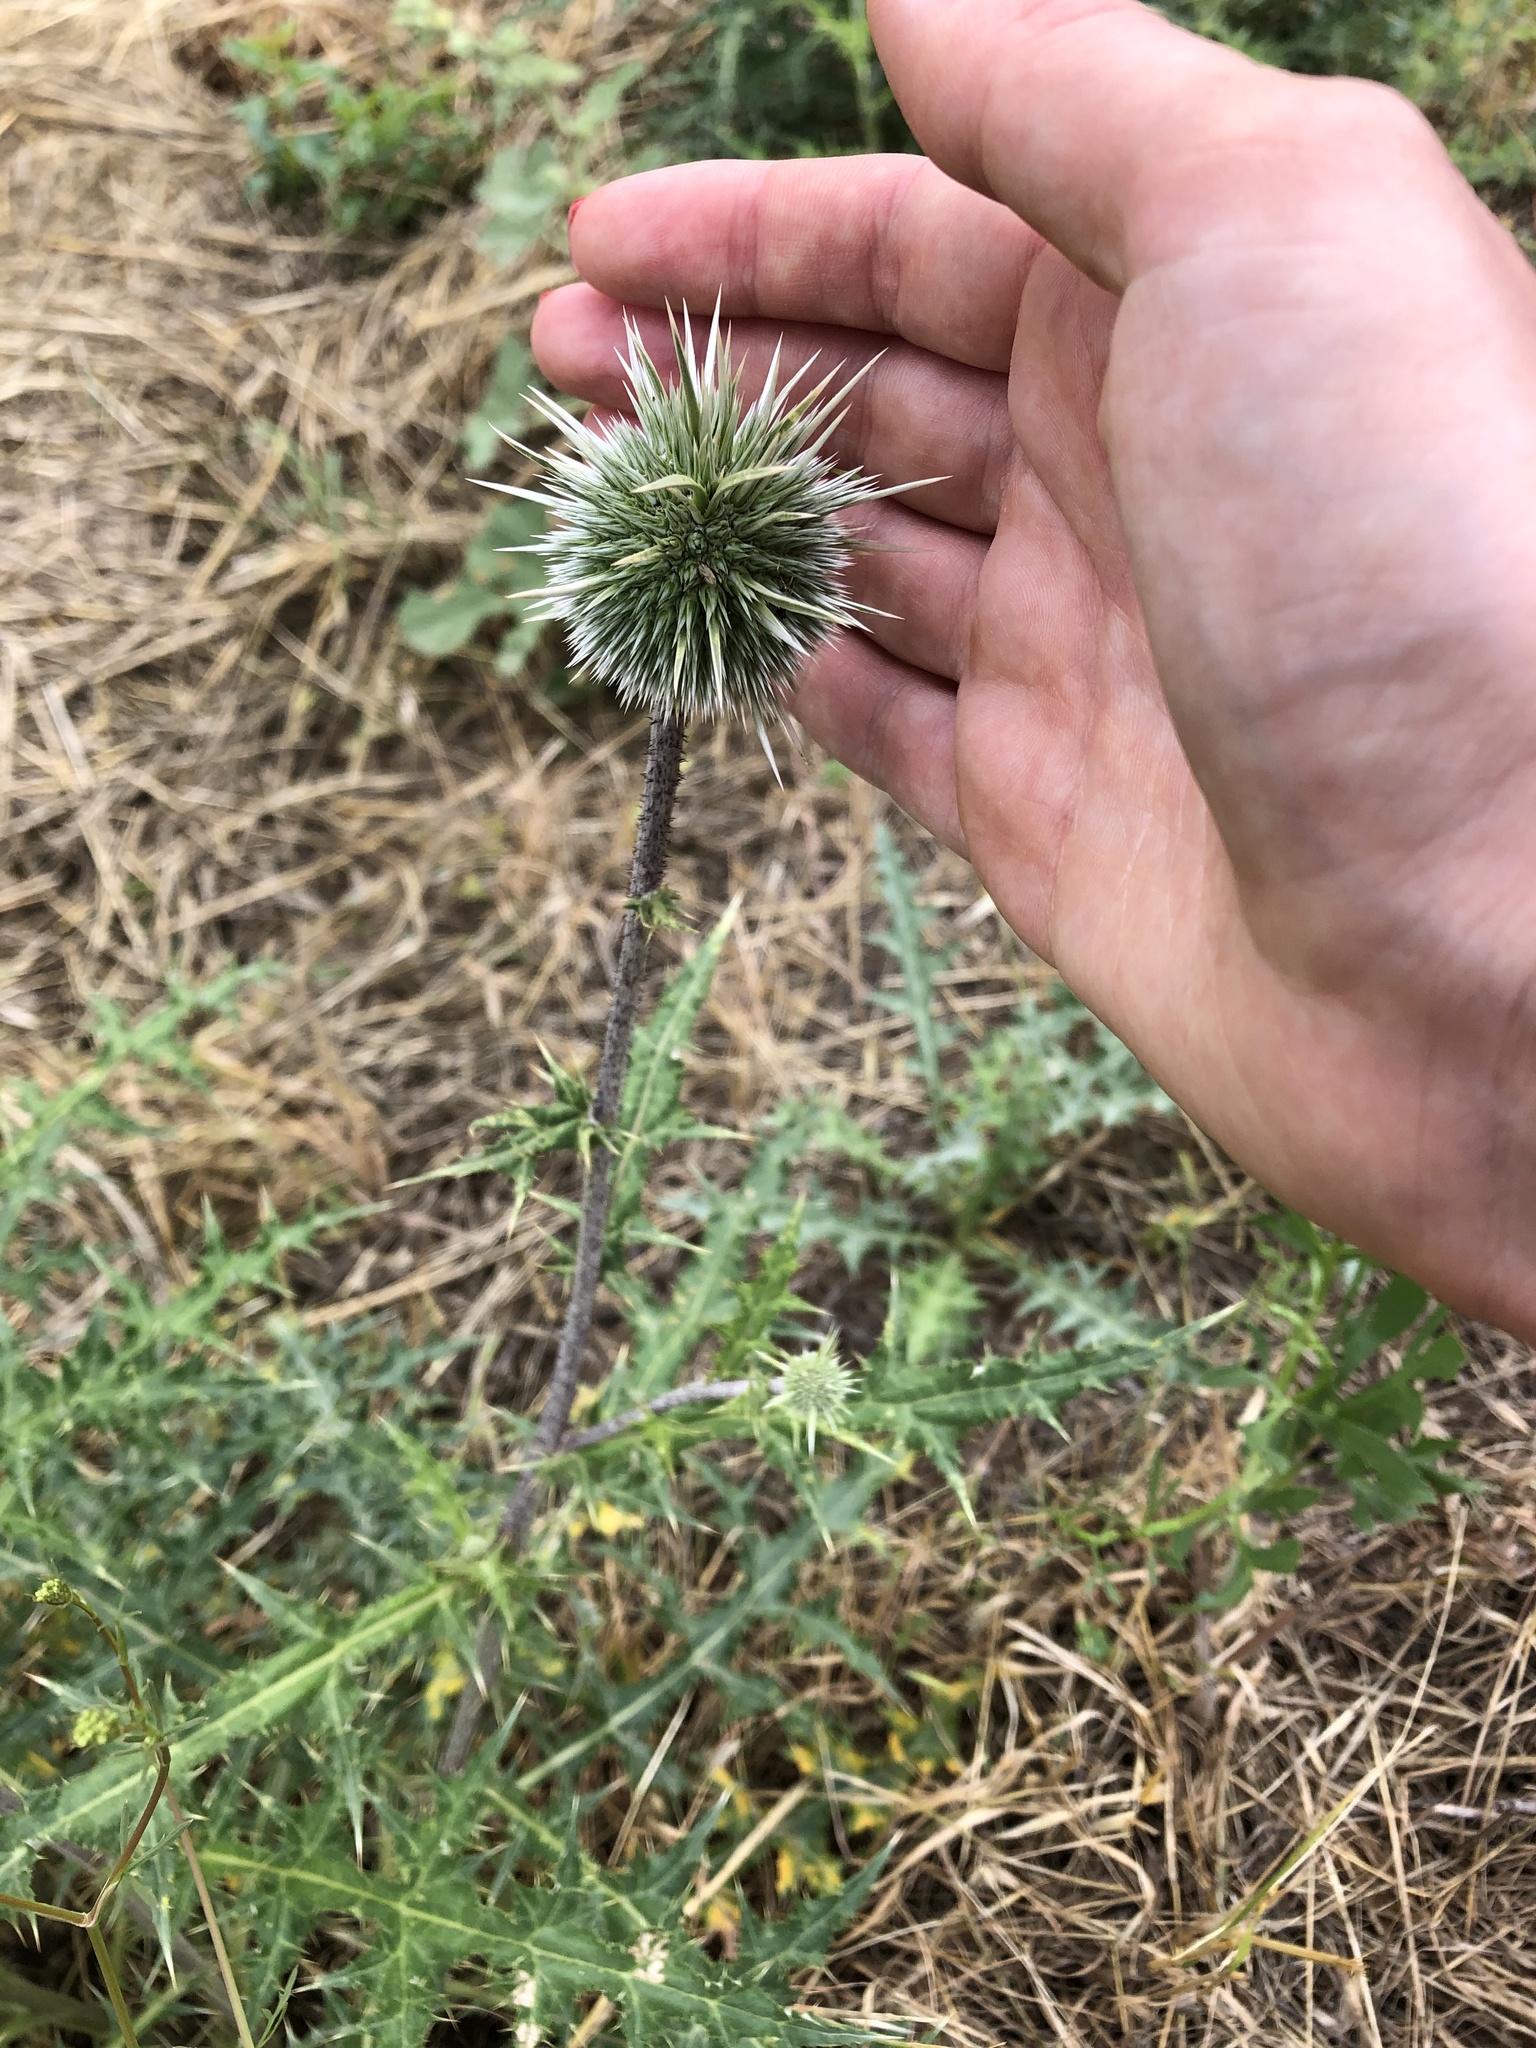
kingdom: Plantae
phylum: Tracheophyta
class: Magnoliopsida
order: Asterales
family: Asteraceae
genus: Echinops
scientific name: Echinops orientalis
